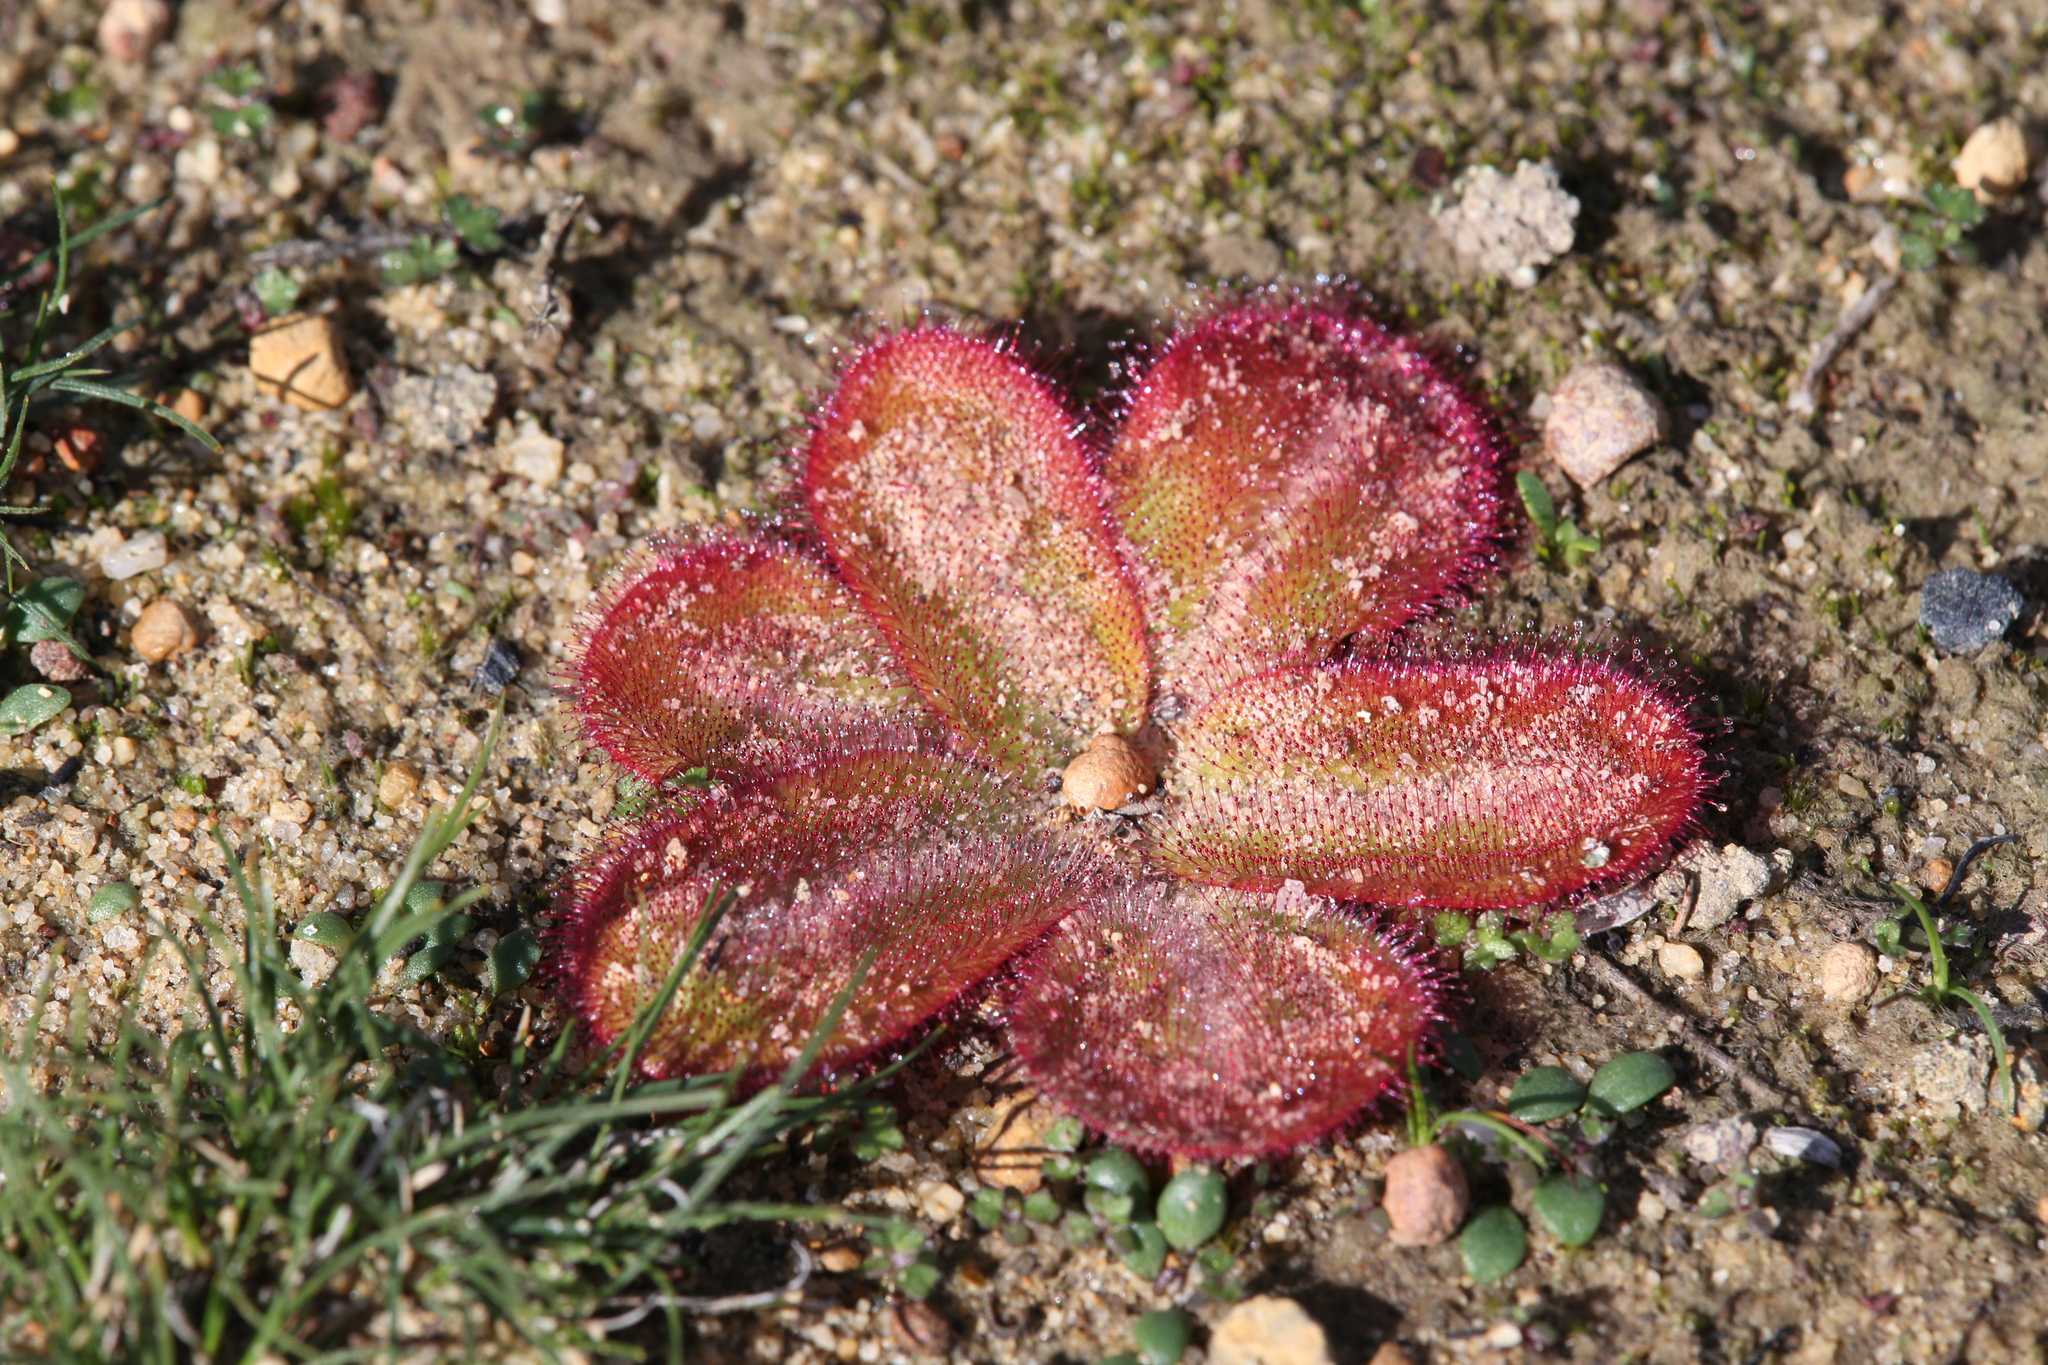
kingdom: Plantae
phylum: Tracheophyta
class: Magnoliopsida
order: Caryophyllales
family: Droseraceae
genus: Drosera
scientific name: Drosera erythrorhiza
